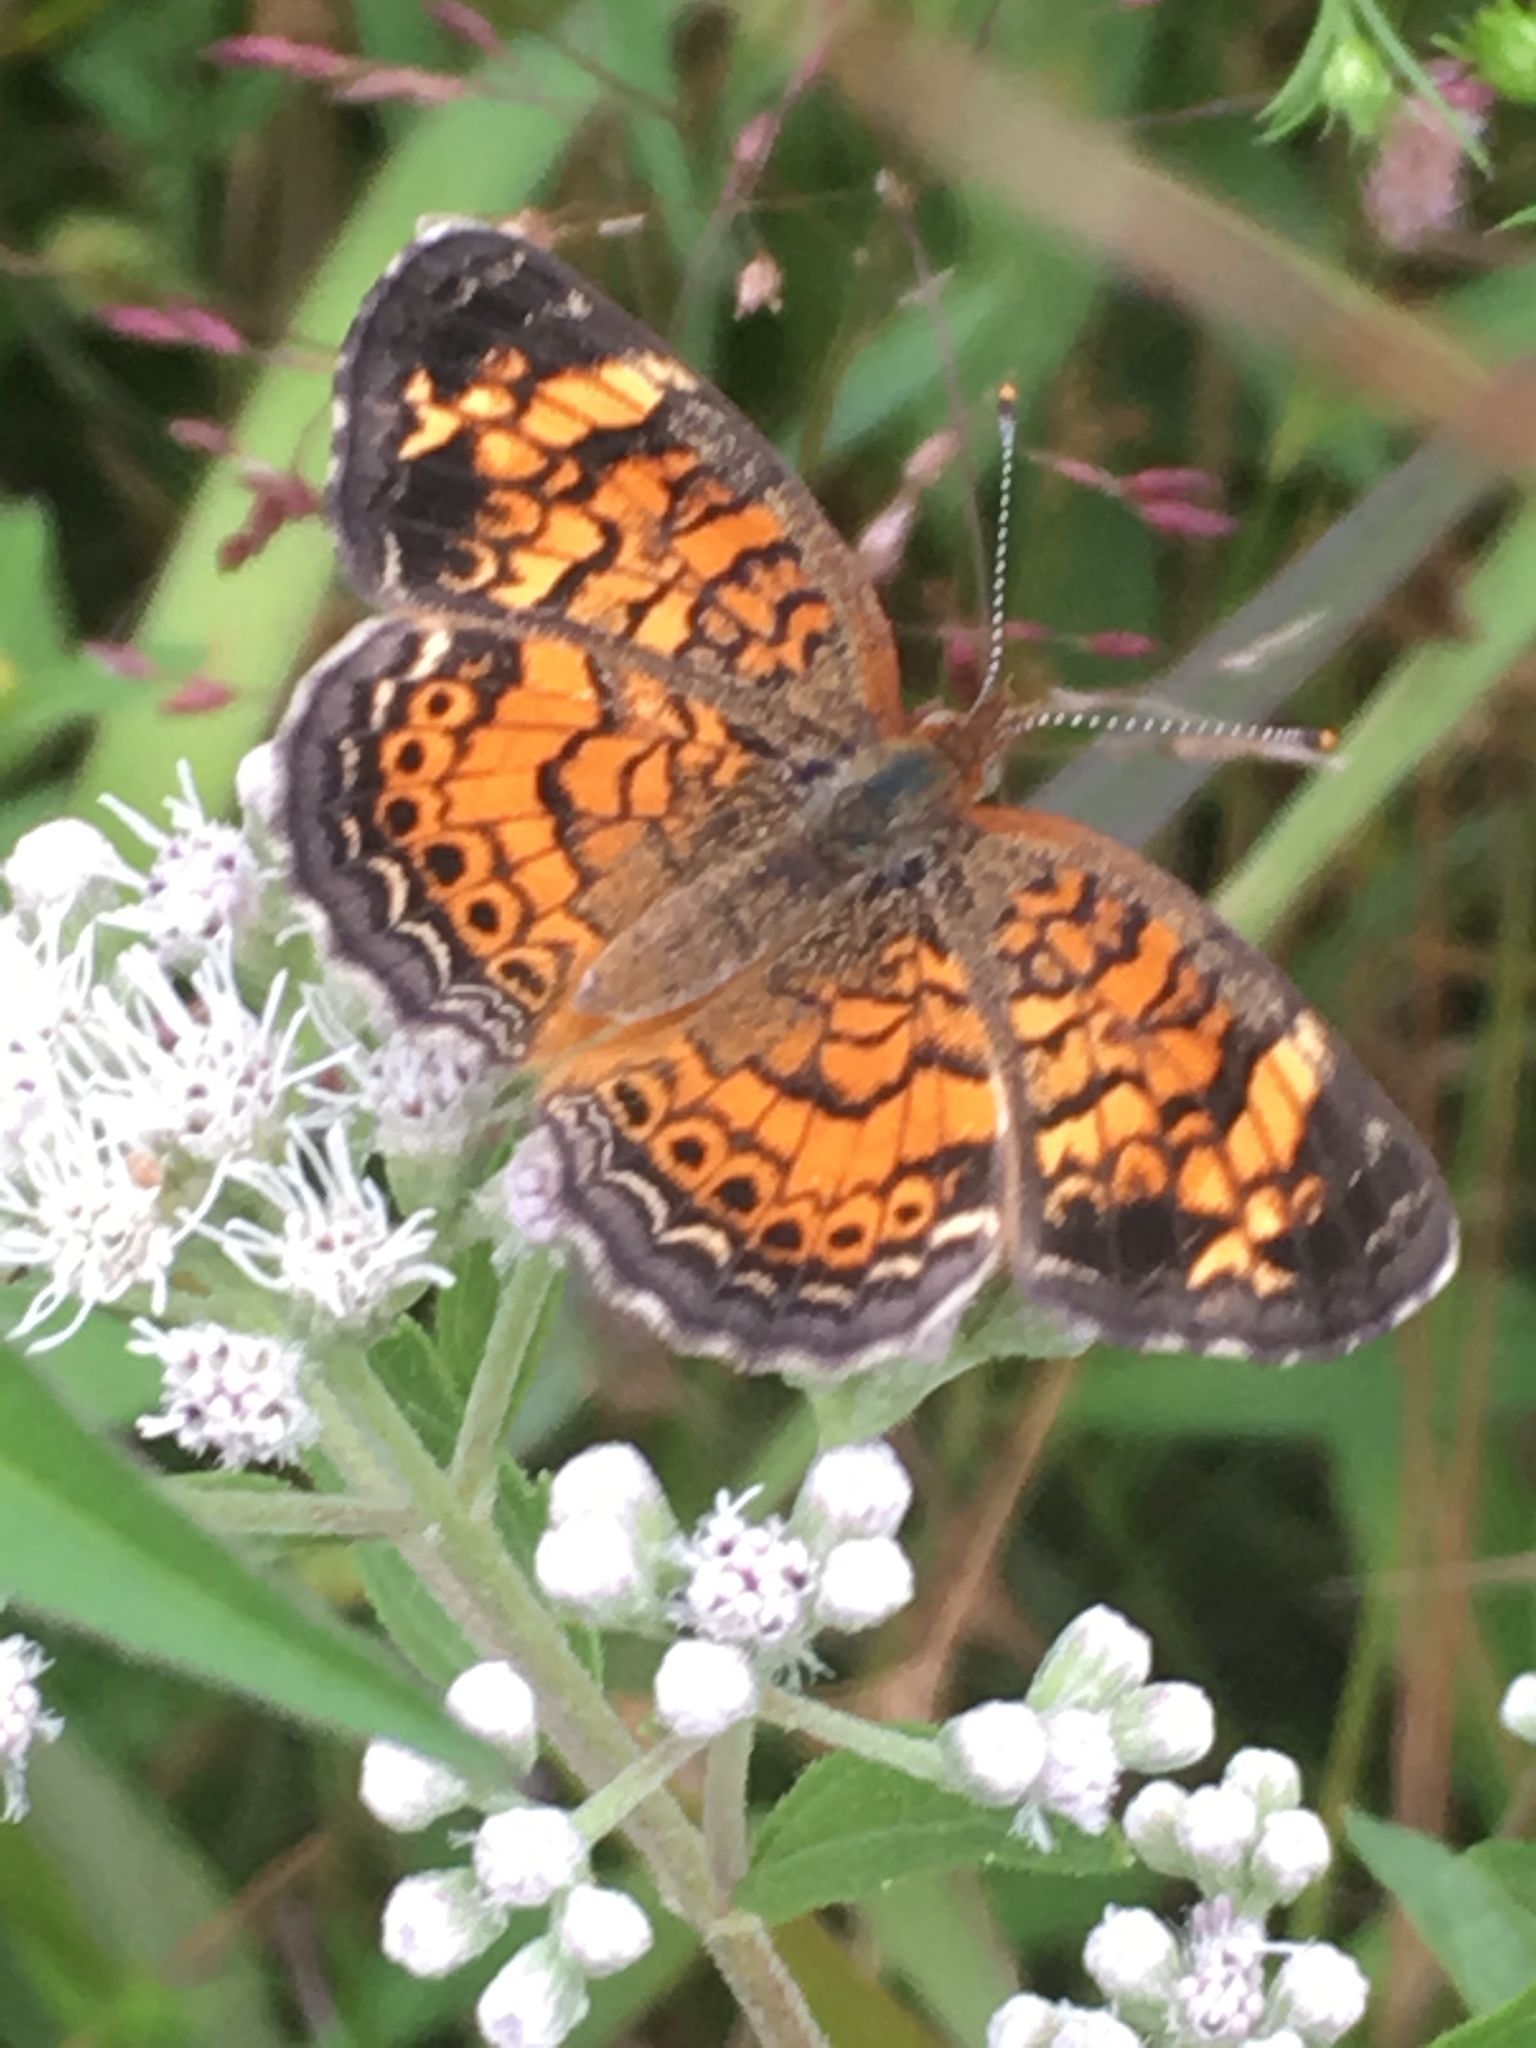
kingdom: Animalia
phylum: Arthropoda
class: Insecta
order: Lepidoptera
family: Nymphalidae
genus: Phyciodes
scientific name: Phyciodes tharos
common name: Pearl crescent
